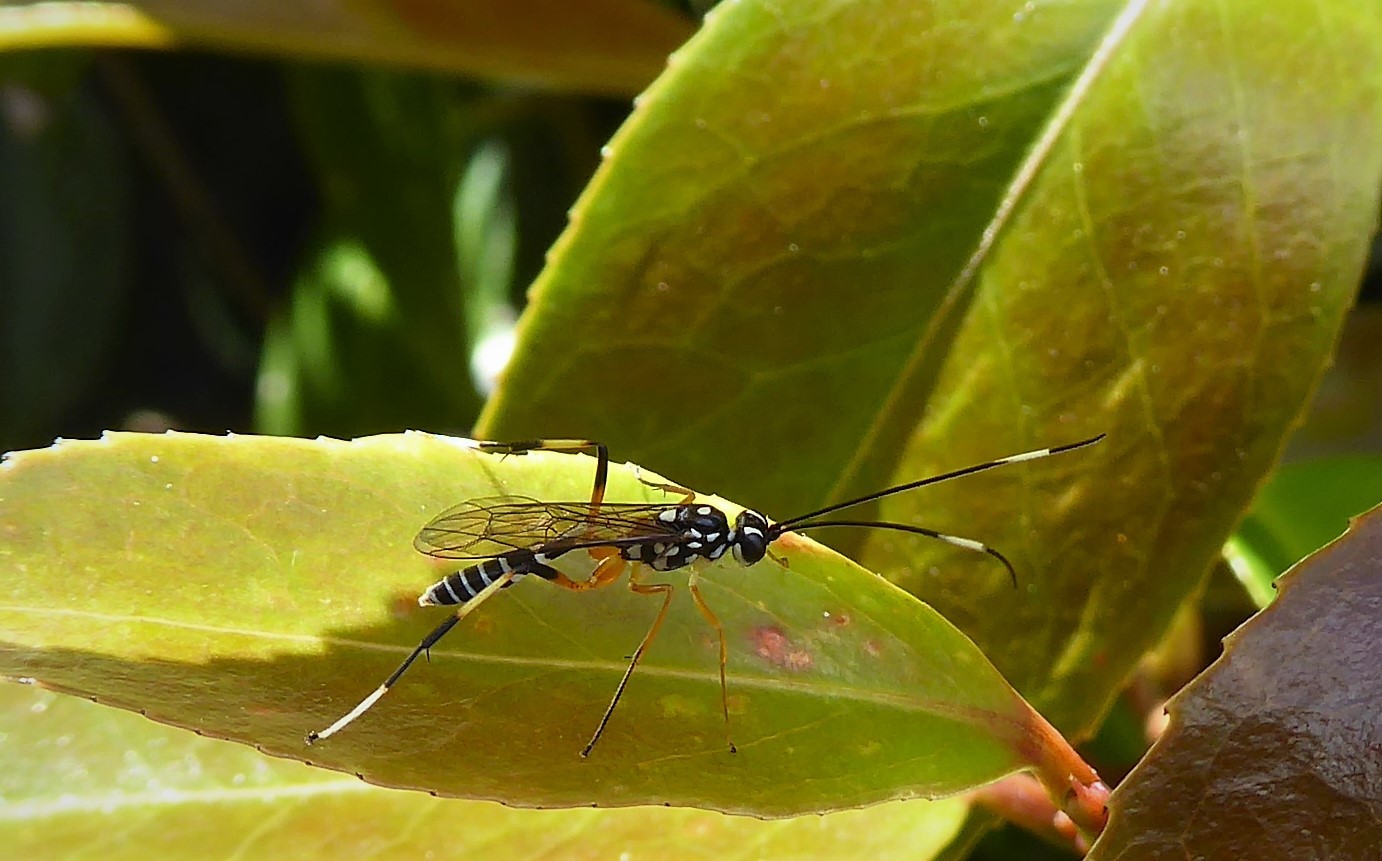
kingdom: Animalia
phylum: Arthropoda
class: Insecta
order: Hymenoptera
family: Ichneumonidae
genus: Xanthocryptus
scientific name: Xanthocryptus novozealandicus
